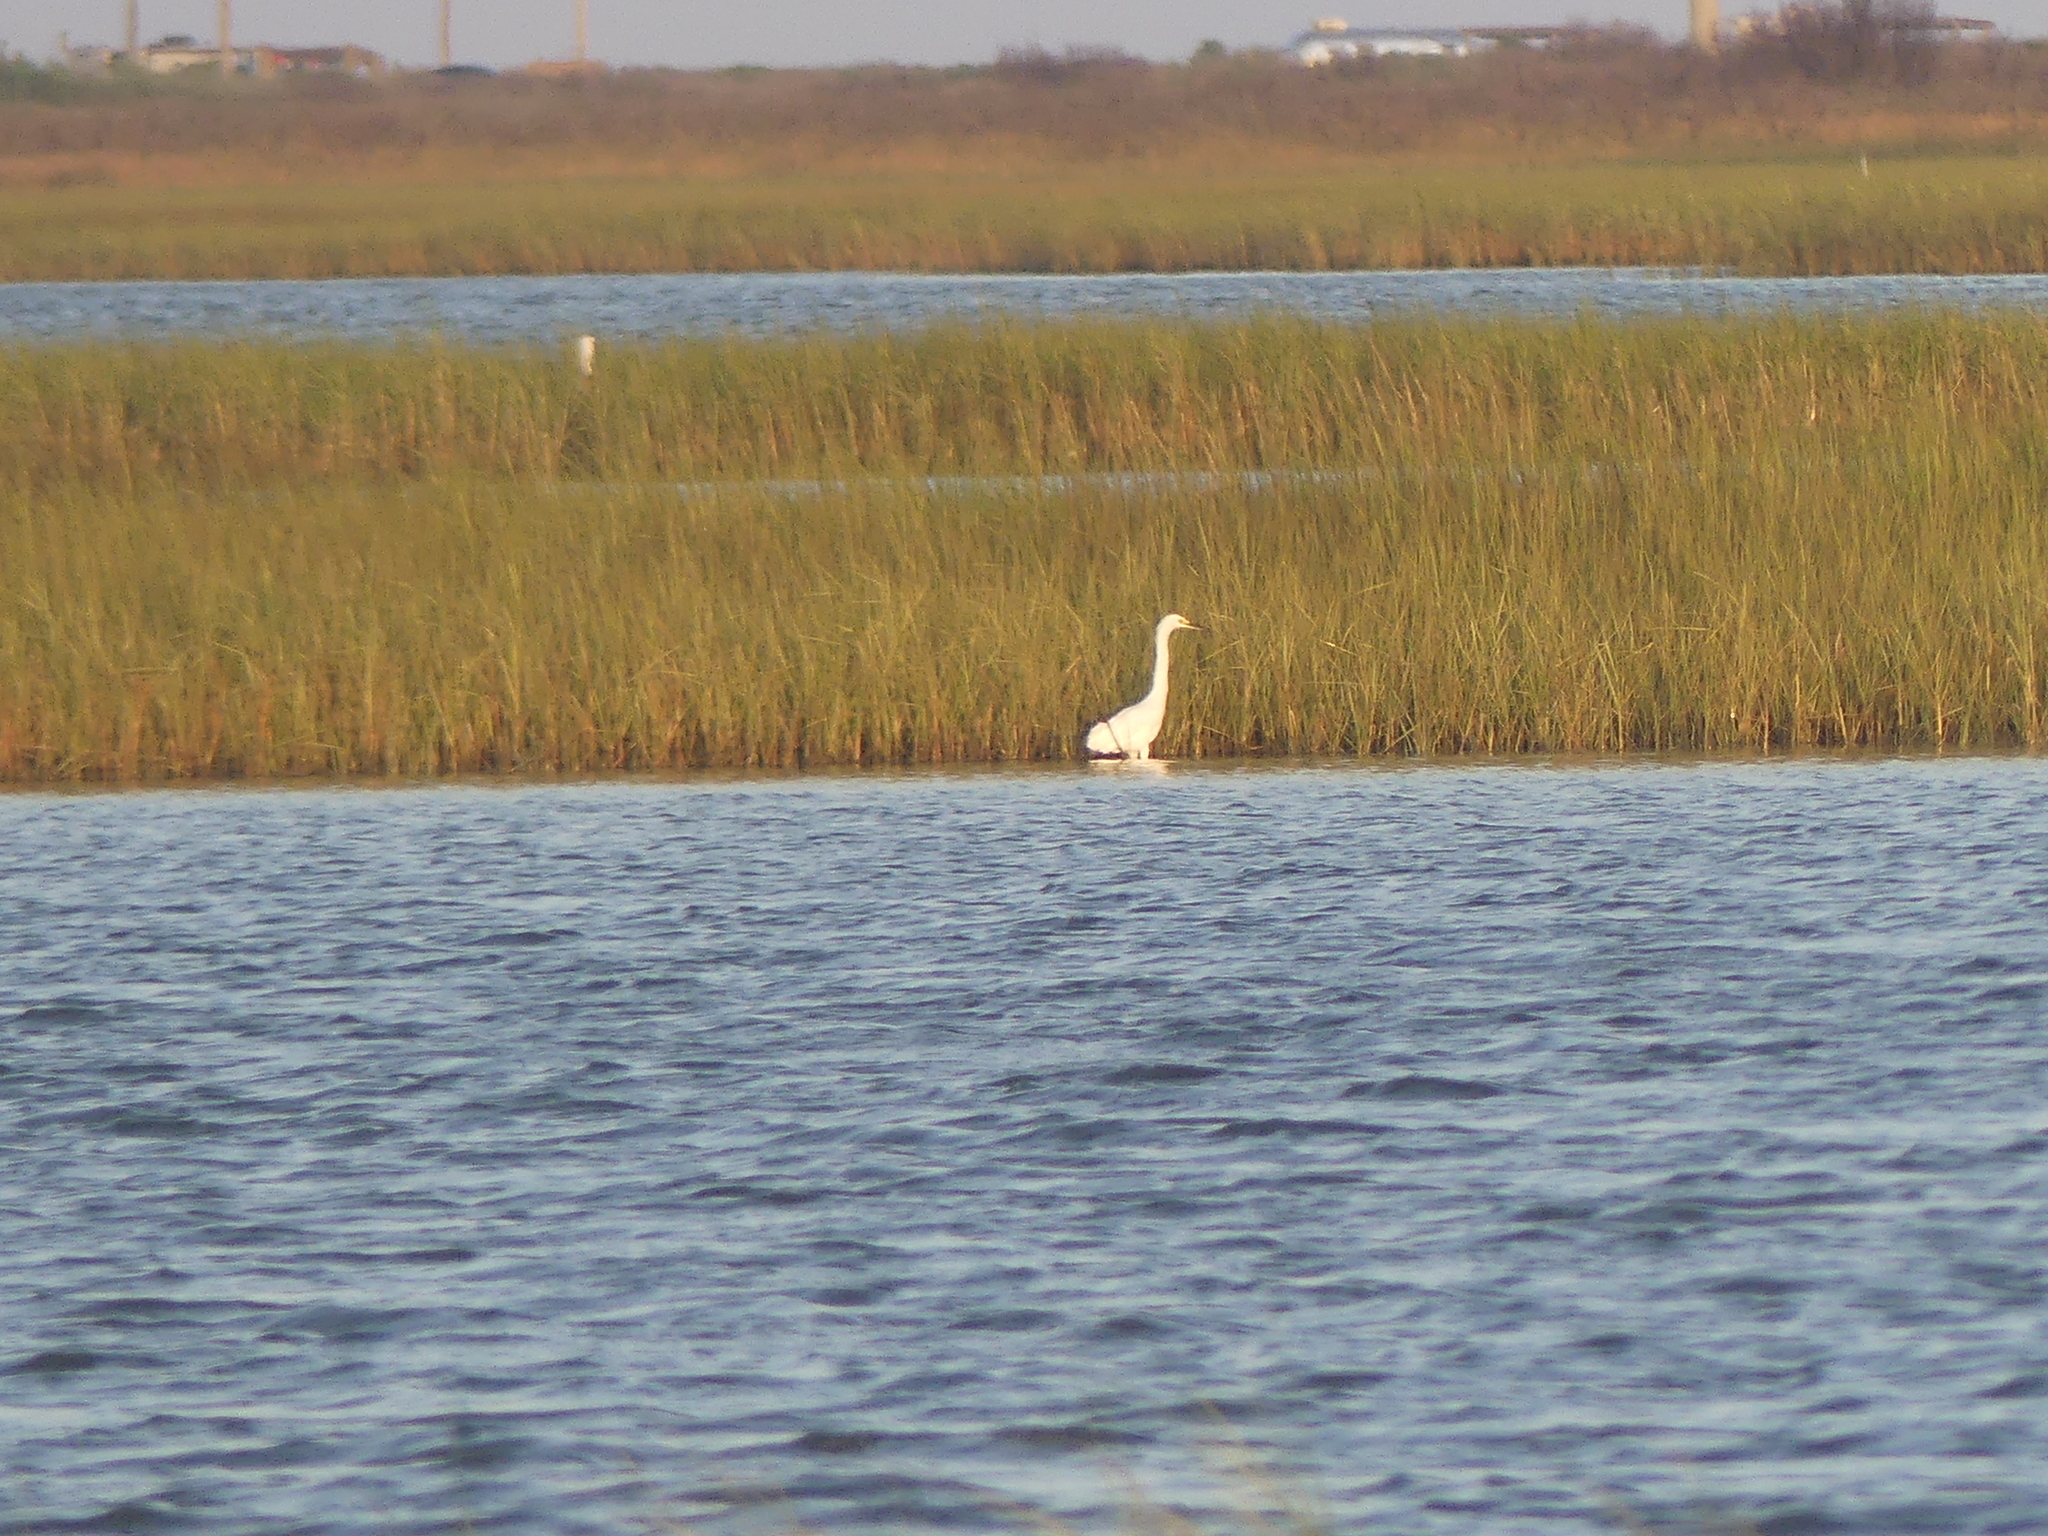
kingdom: Animalia
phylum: Chordata
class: Aves
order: Pelecaniformes
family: Ardeidae
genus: Ardea
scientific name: Ardea alba
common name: Great egret
